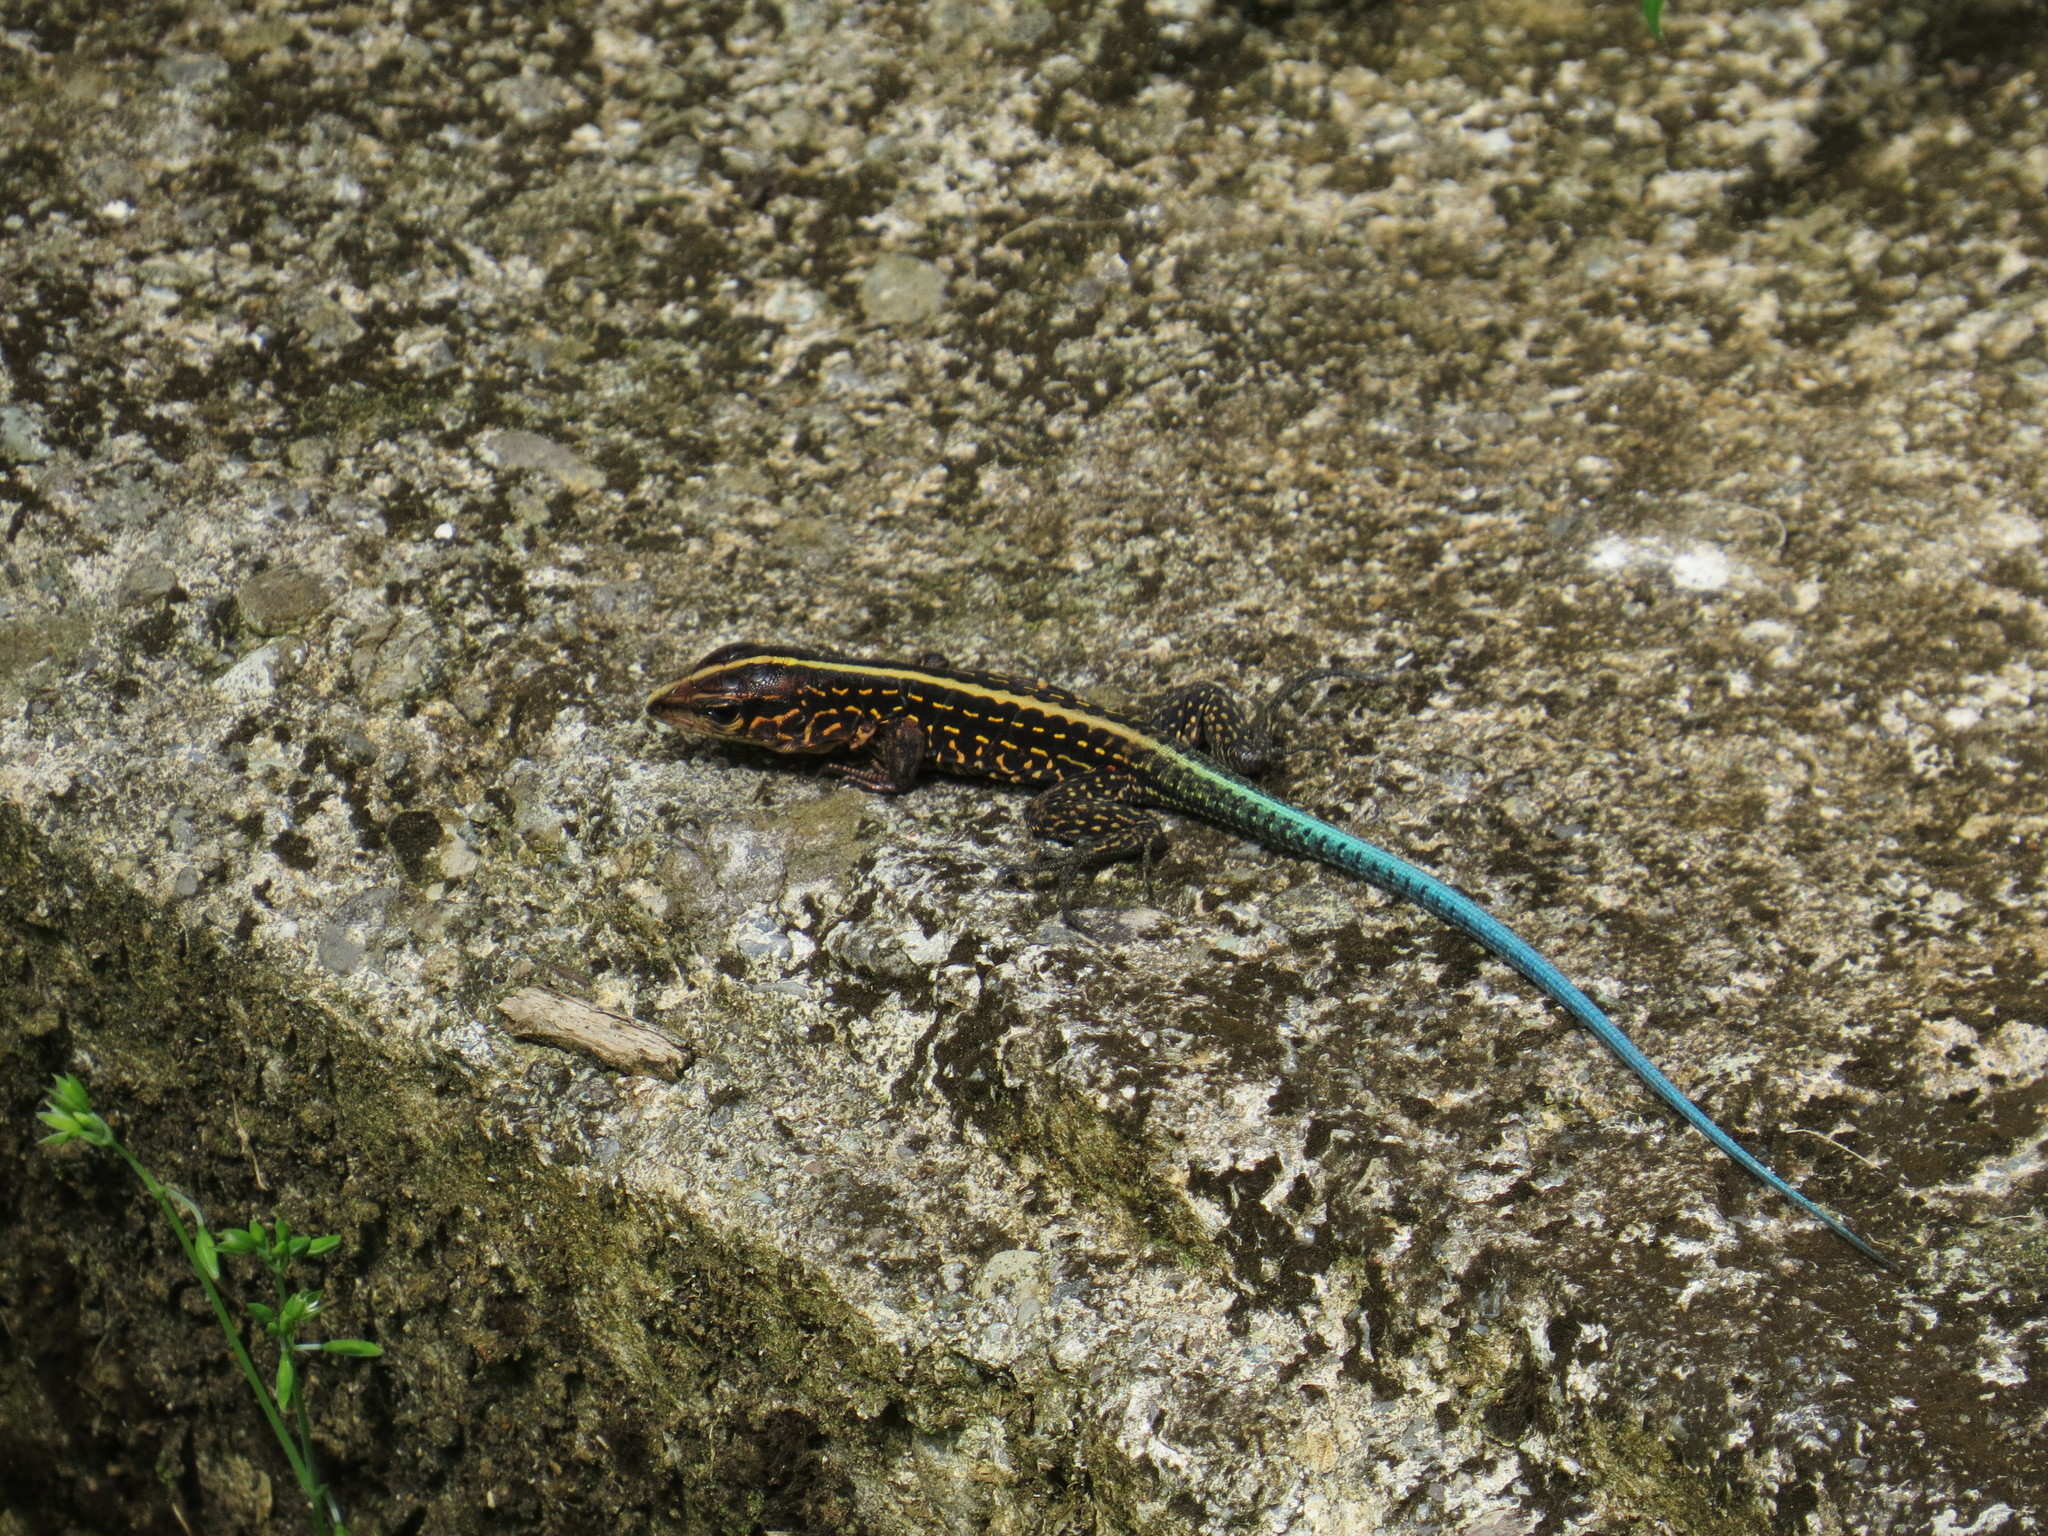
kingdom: Animalia
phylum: Chordata
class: Squamata
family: Teiidae
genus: Holcosus
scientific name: Holcosus festivus
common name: Middle american ameiva
